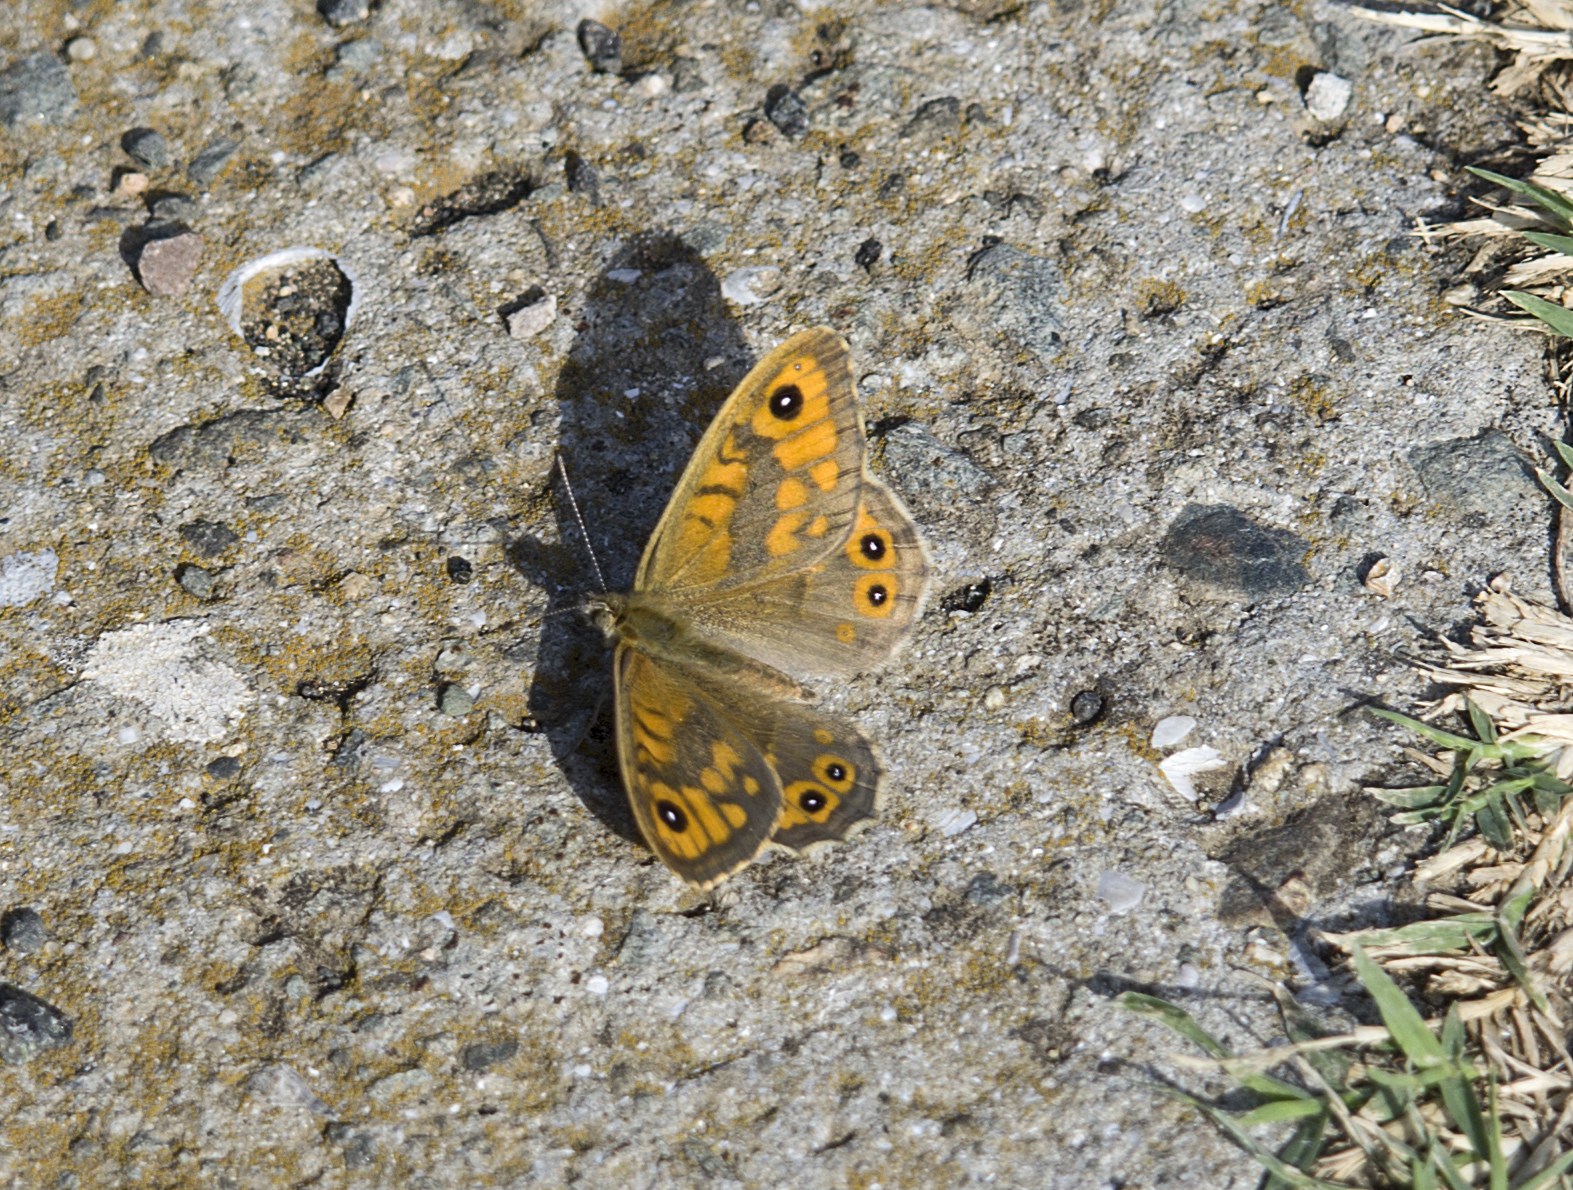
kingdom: Animalia
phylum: Arthropoda
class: Insecta
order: Lepidoptera
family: Nymphalidae
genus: Pararge
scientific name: Pararge Lasiommata megera
